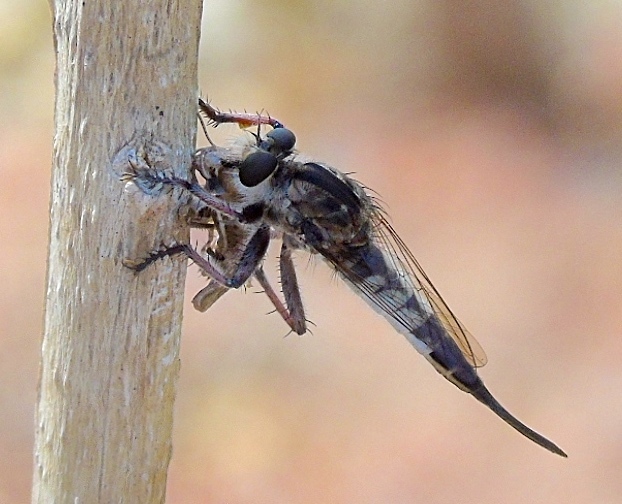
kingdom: Animalia
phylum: Arthropoda
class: Insecta
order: Diptera
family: Asilidae
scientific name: Asilidae
